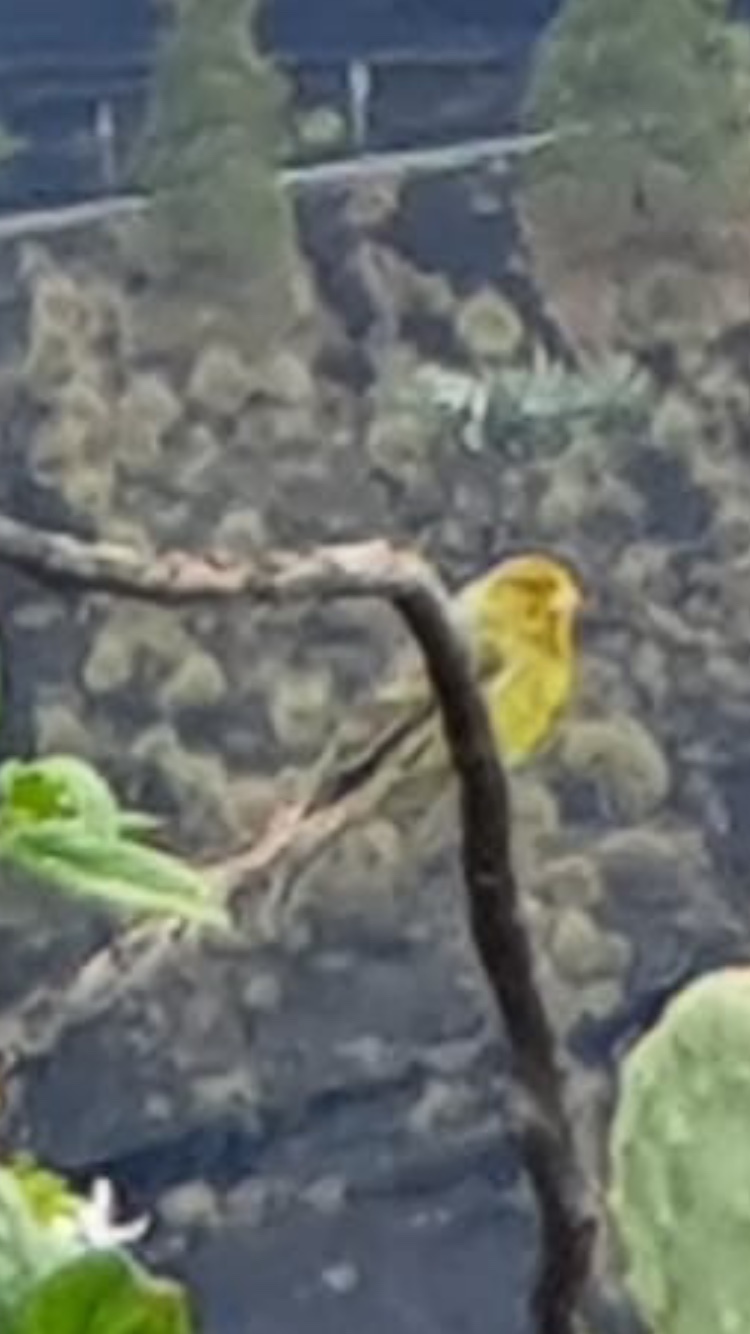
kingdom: Animalia
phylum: Chordata
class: Aves
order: Passeriformes
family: Fringillidae
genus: Serinus
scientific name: Serinus canaria
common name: Atlantic canary
